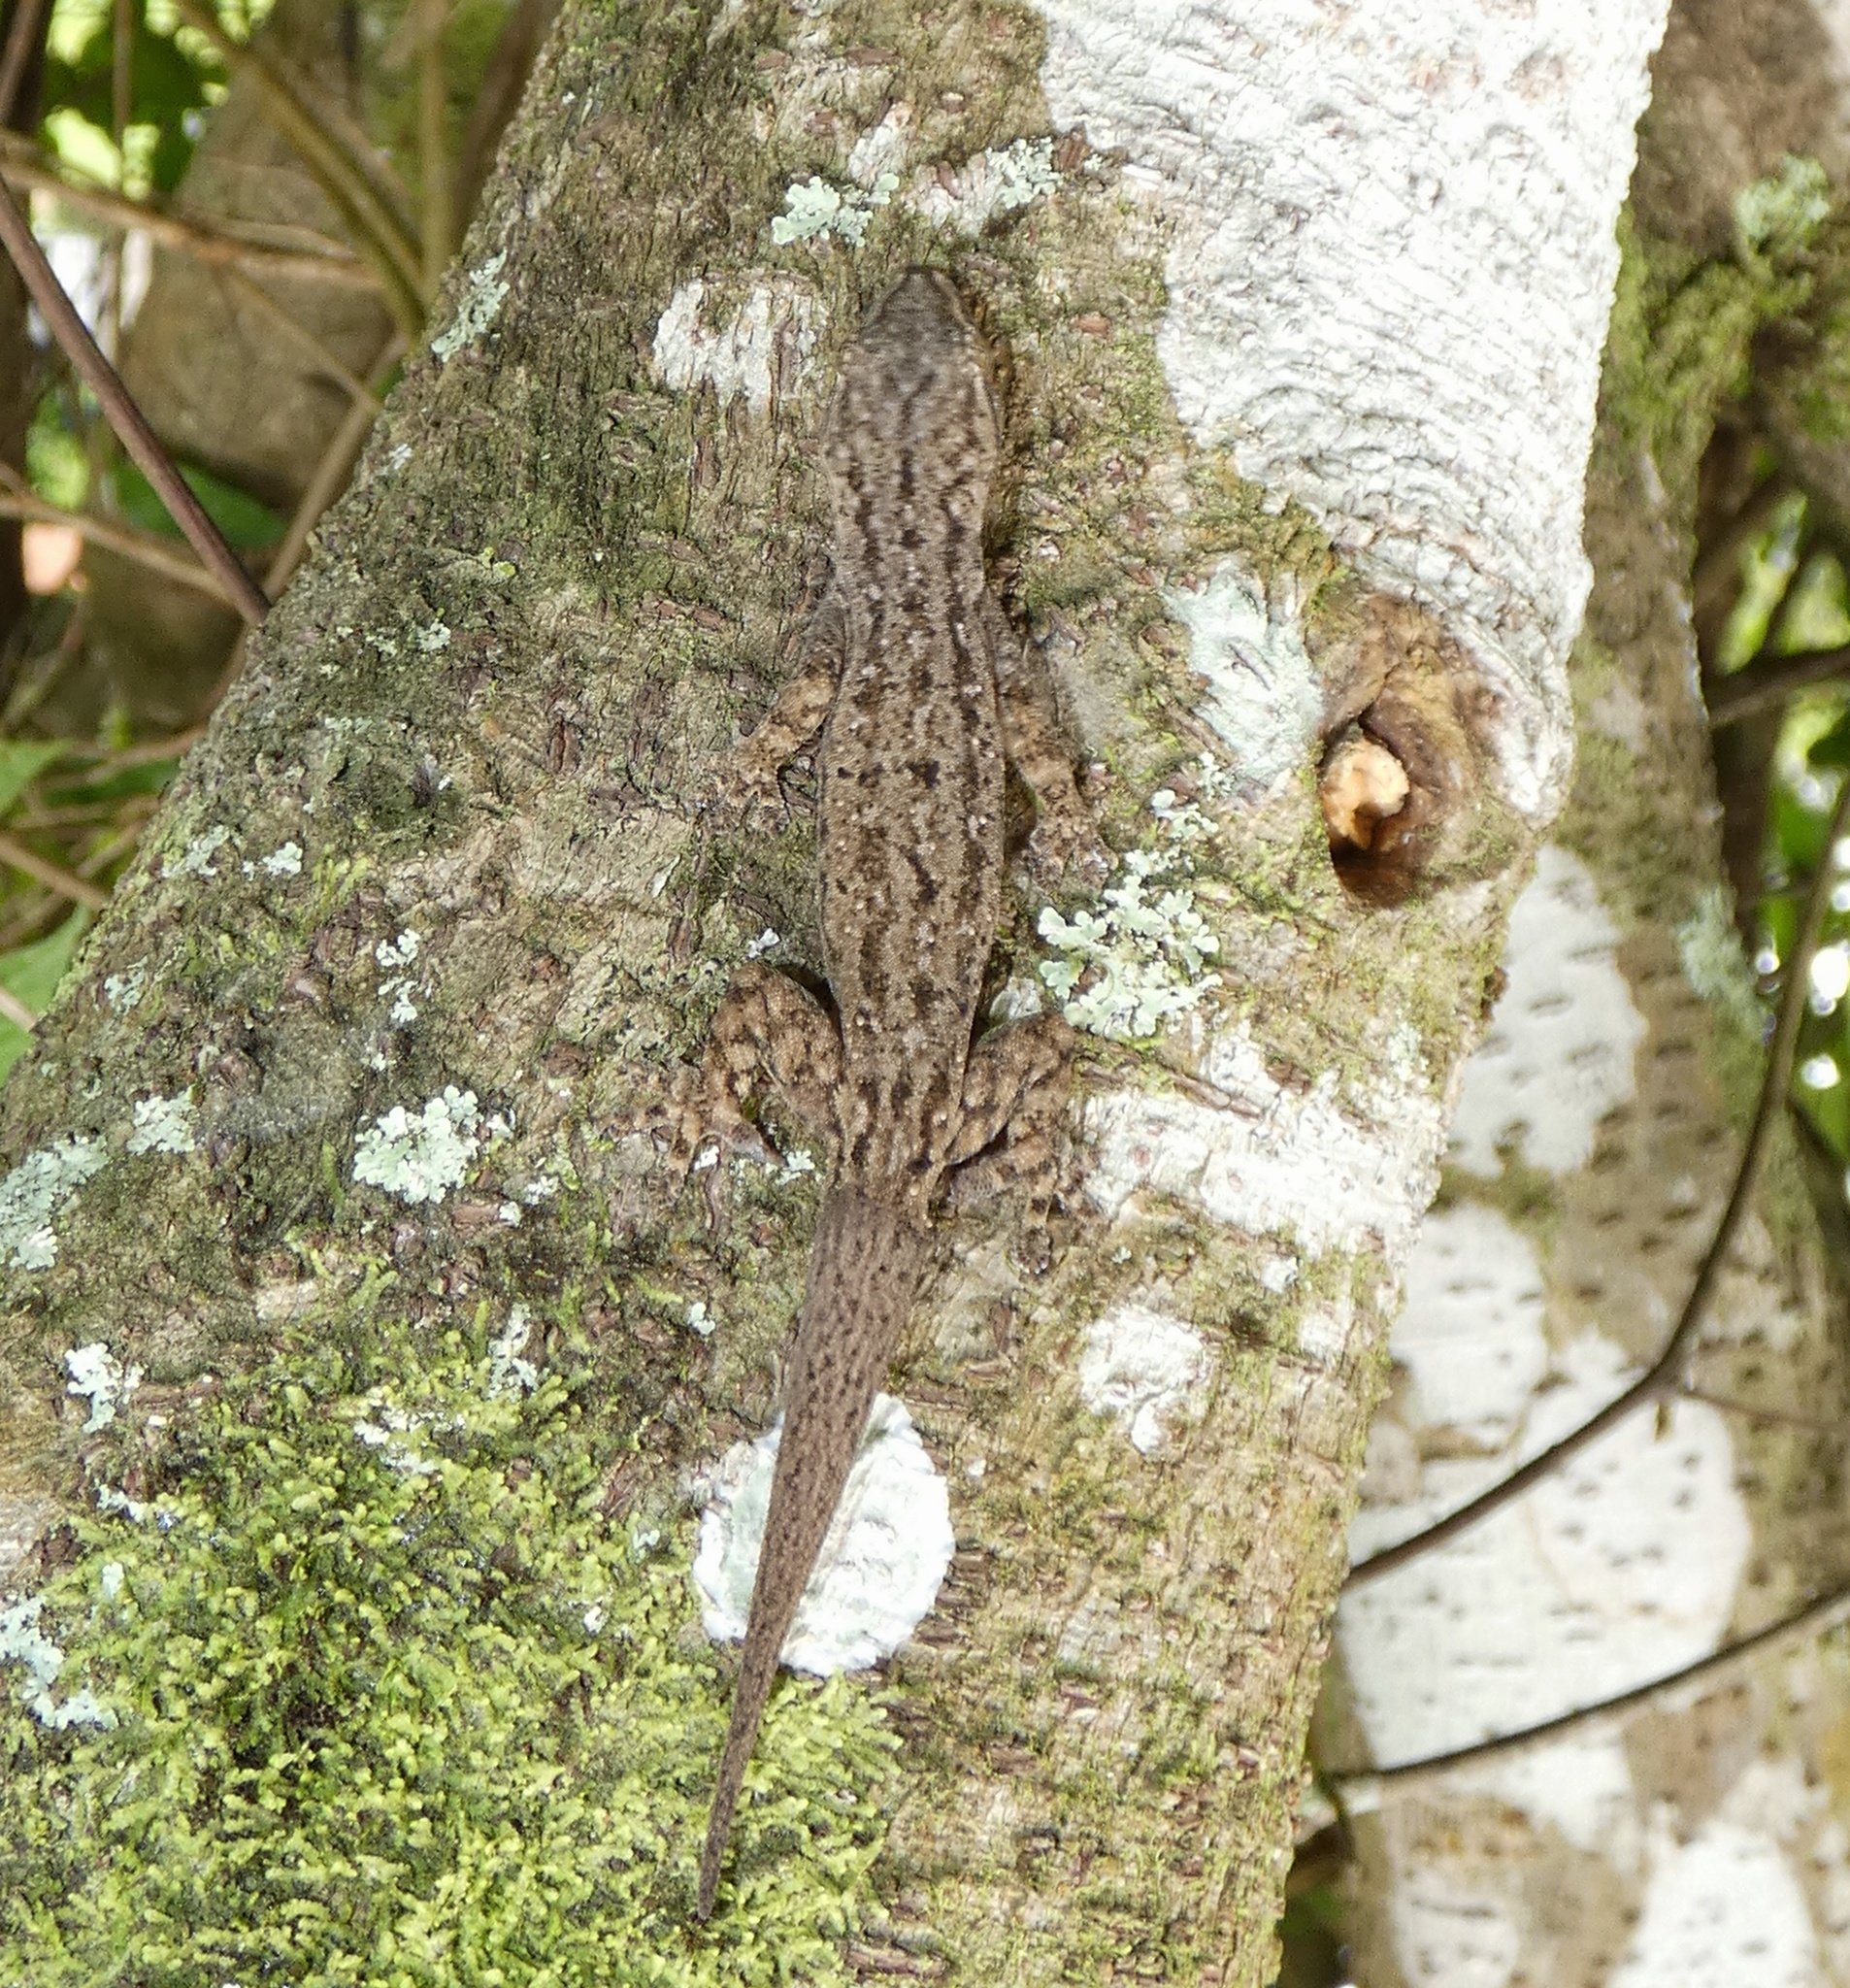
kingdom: Animalia
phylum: Chordata
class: Squamata
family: Gekkonidae
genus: Hemidactylus
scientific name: Hemidactylus frenatus
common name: Common house gecko
